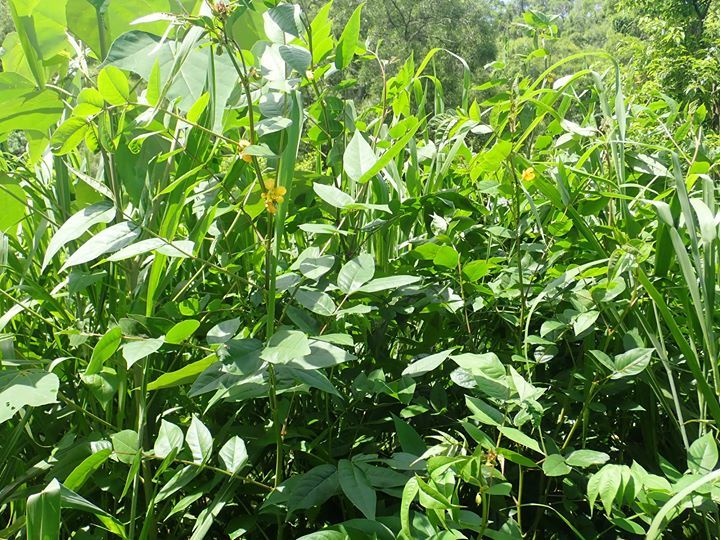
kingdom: Plantae
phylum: Tracheophyta
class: Magnoliopsida
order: Fabales
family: Fabaceae
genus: Senna
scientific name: Senna occidentalis
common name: Septicweed
